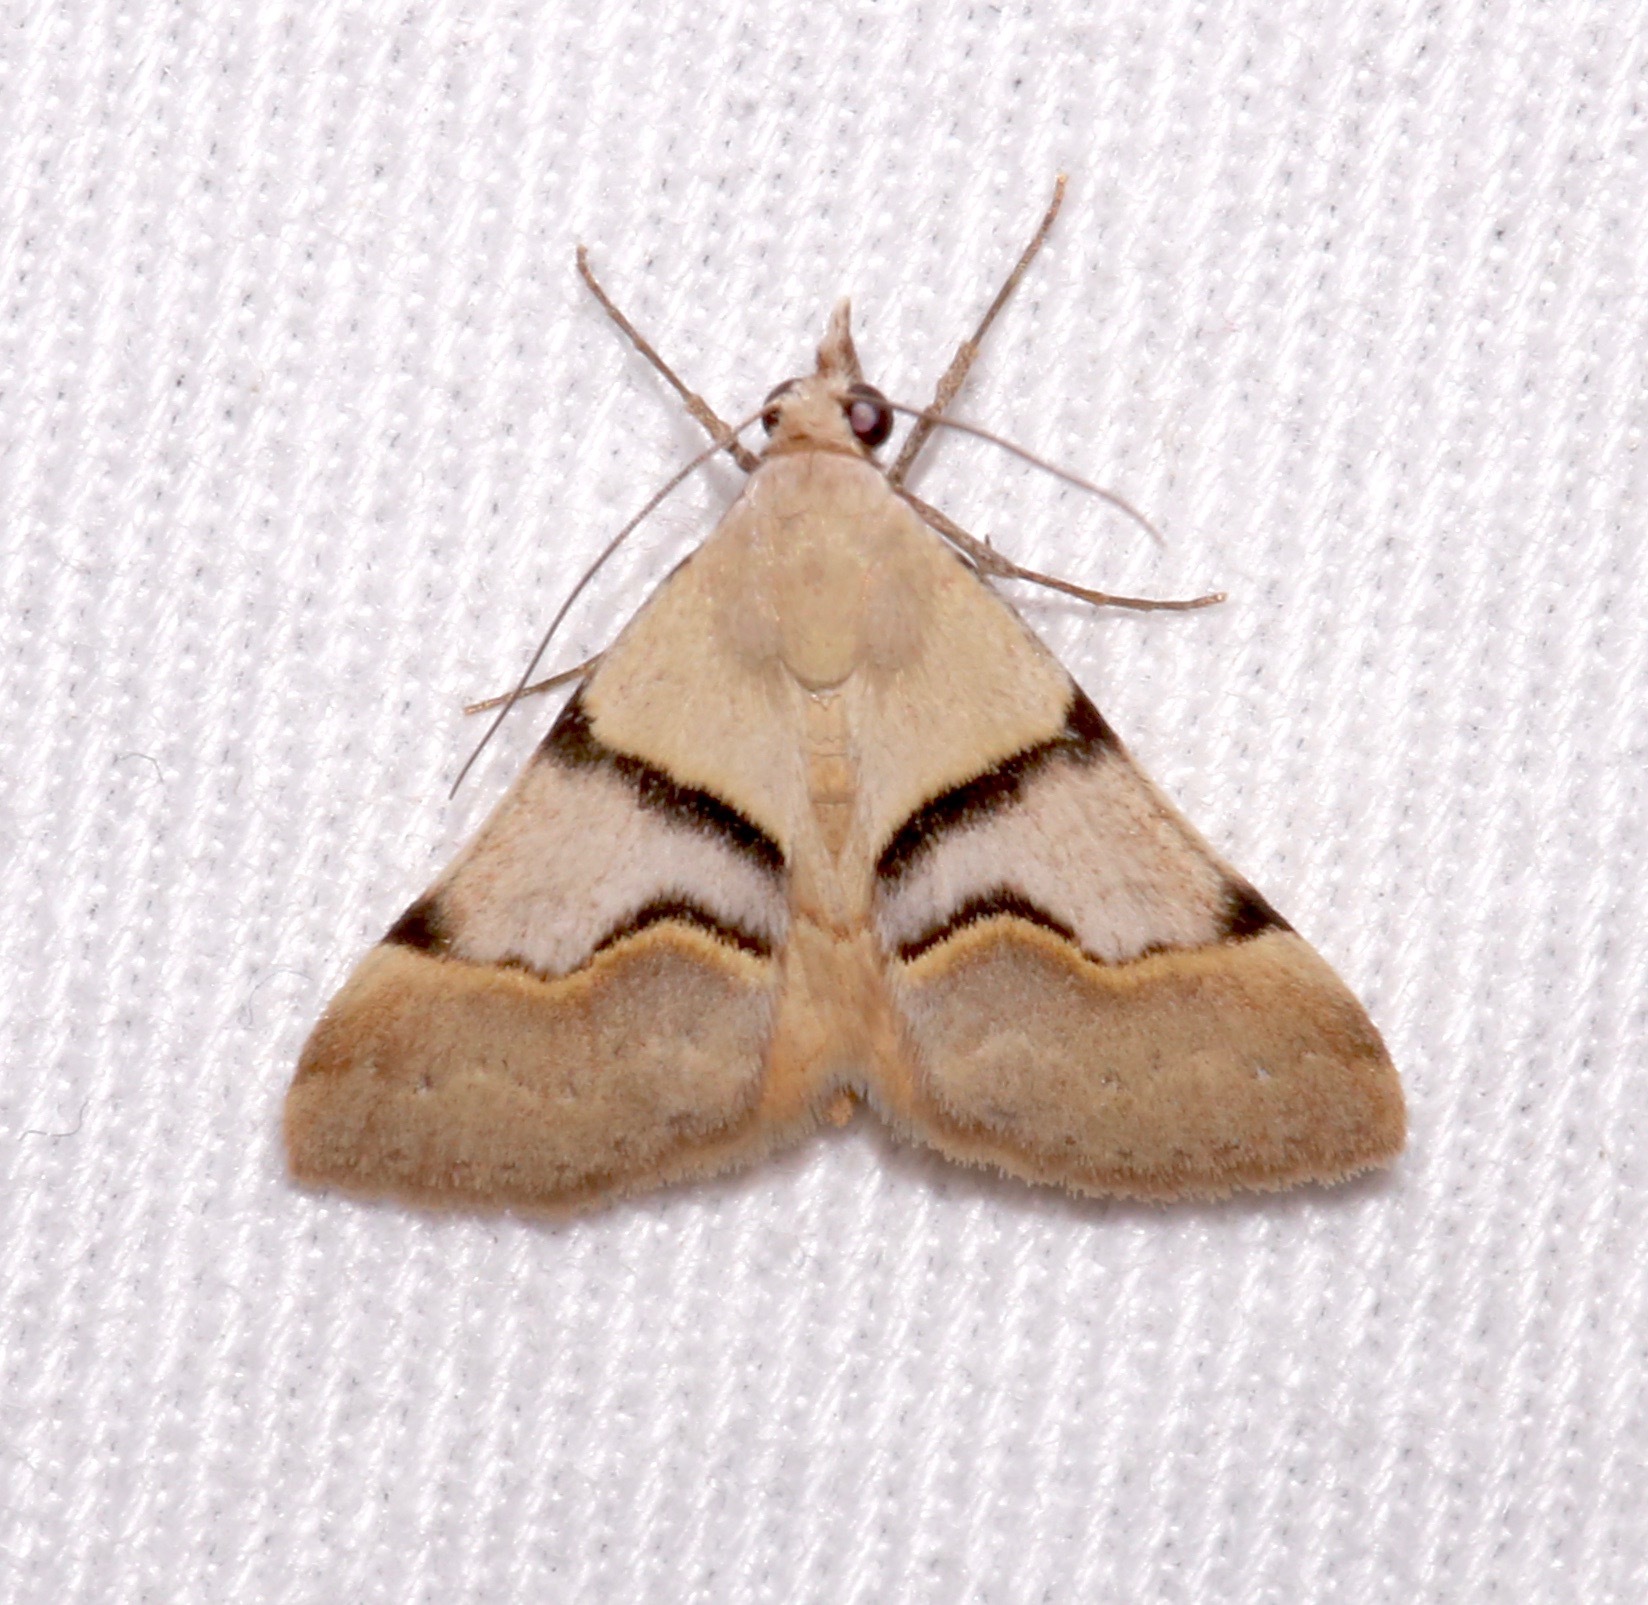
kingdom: Animalia
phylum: Arthropoda
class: Insecta
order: Lepidoptera
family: Erebidae
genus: Hemeroplanis
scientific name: Hemeroplanis incusalis
